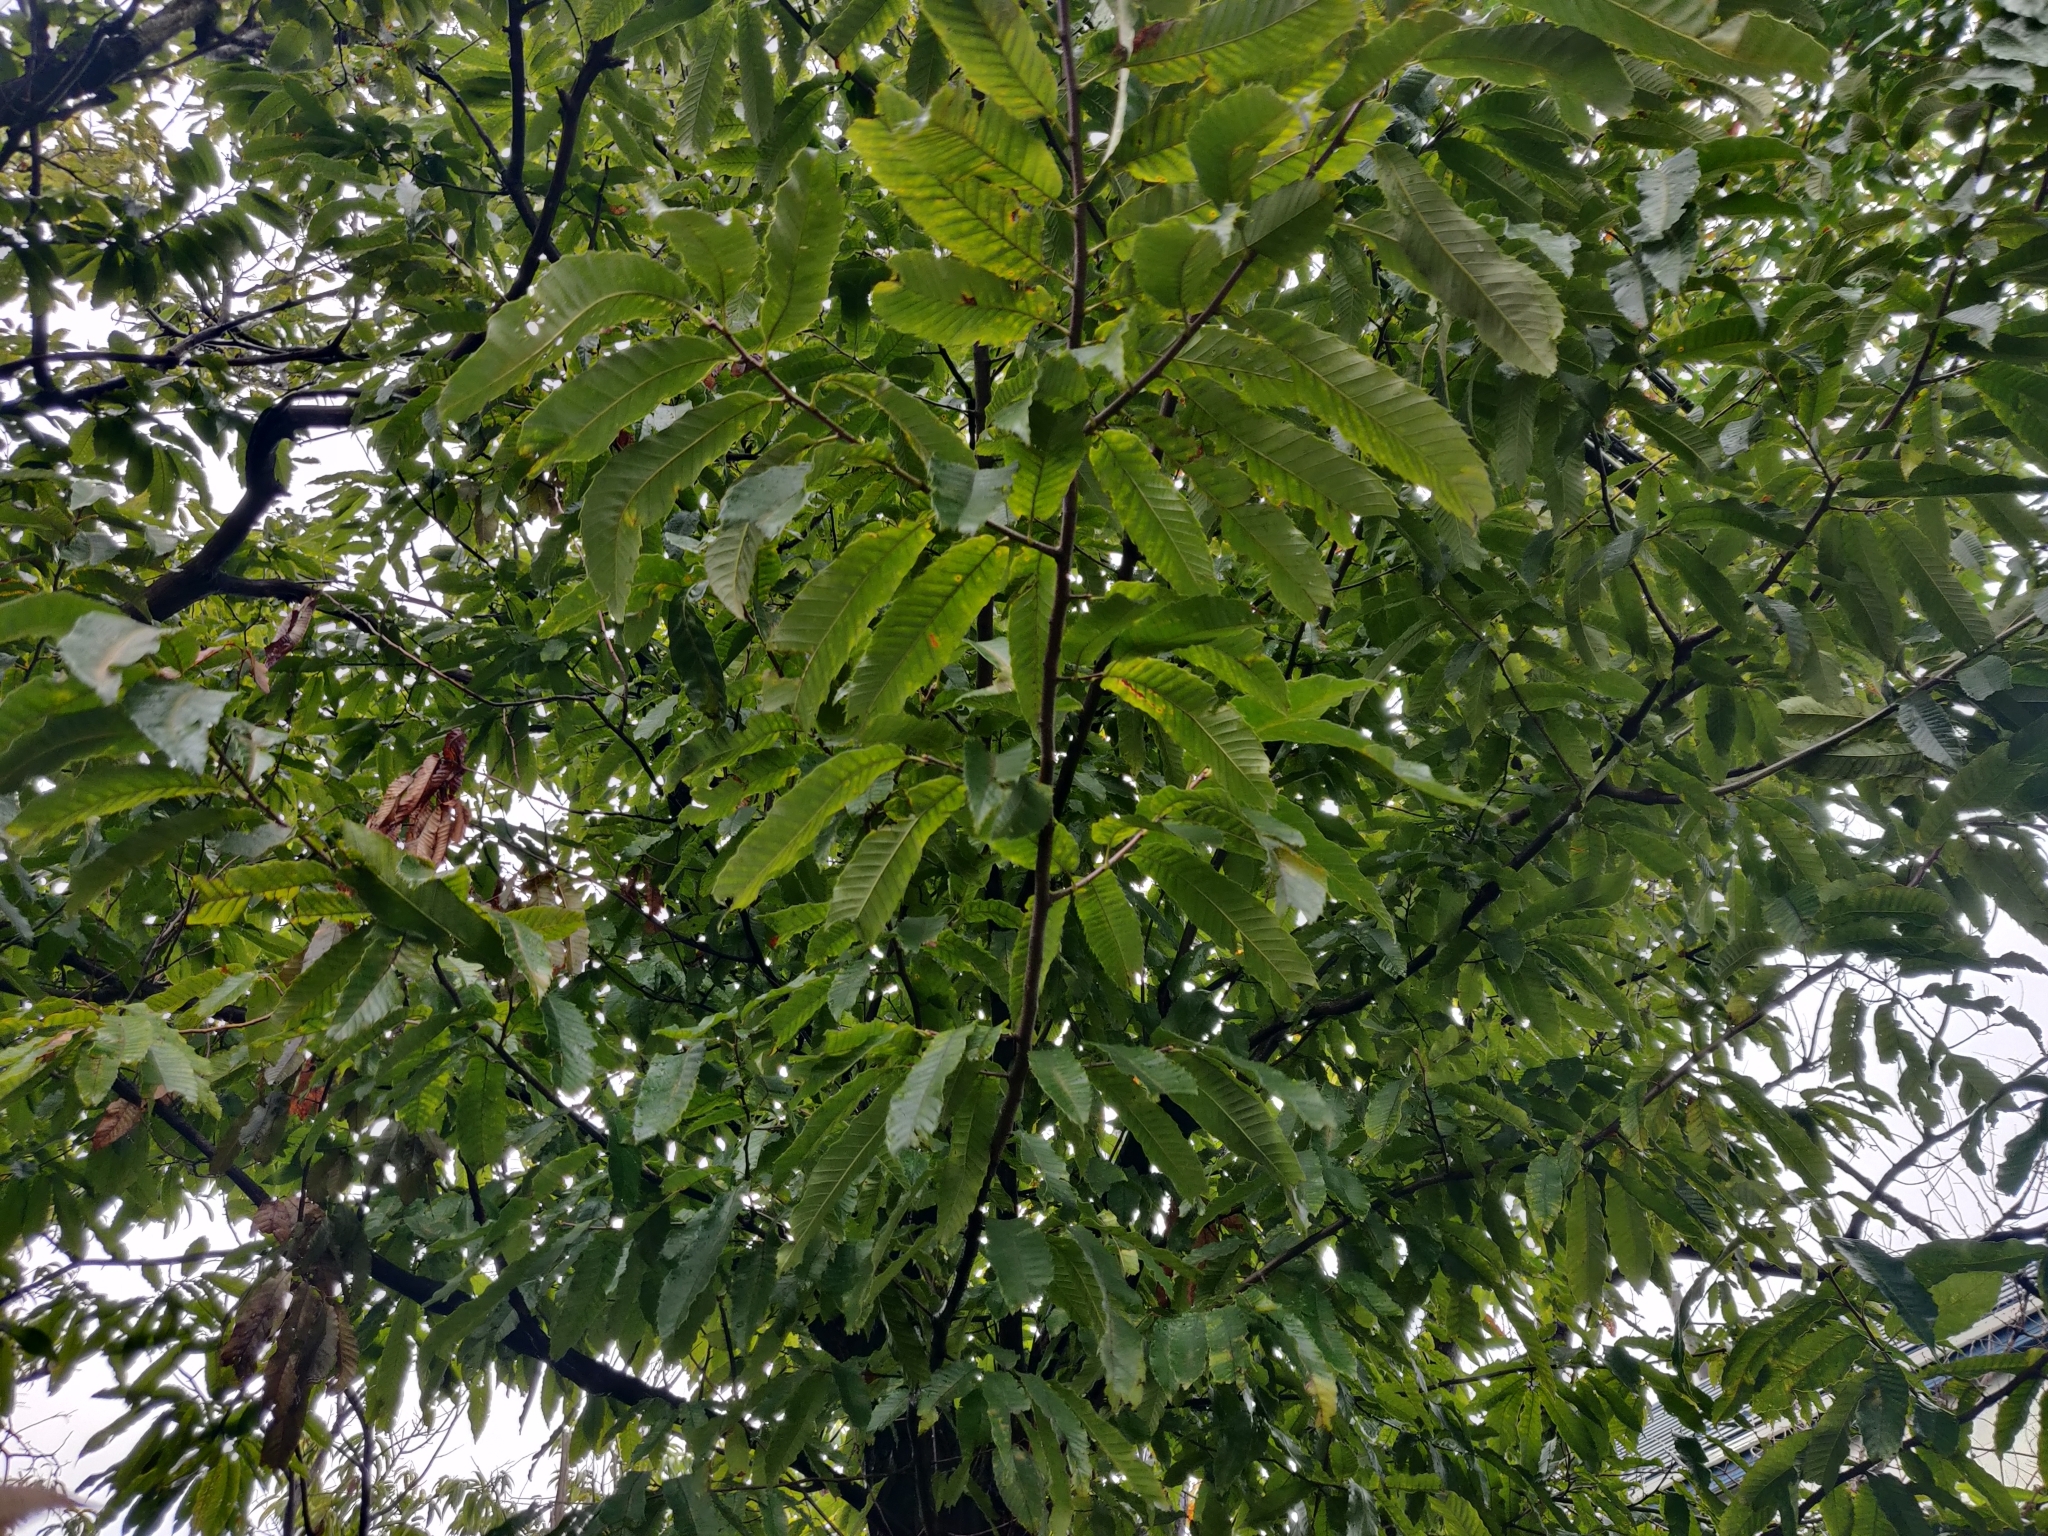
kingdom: Plantae
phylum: Tracheophyta
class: Magnoliopsida
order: Fagales
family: Fagaceae
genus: Castanea
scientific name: Castanea crenata
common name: Japanese chestnut
